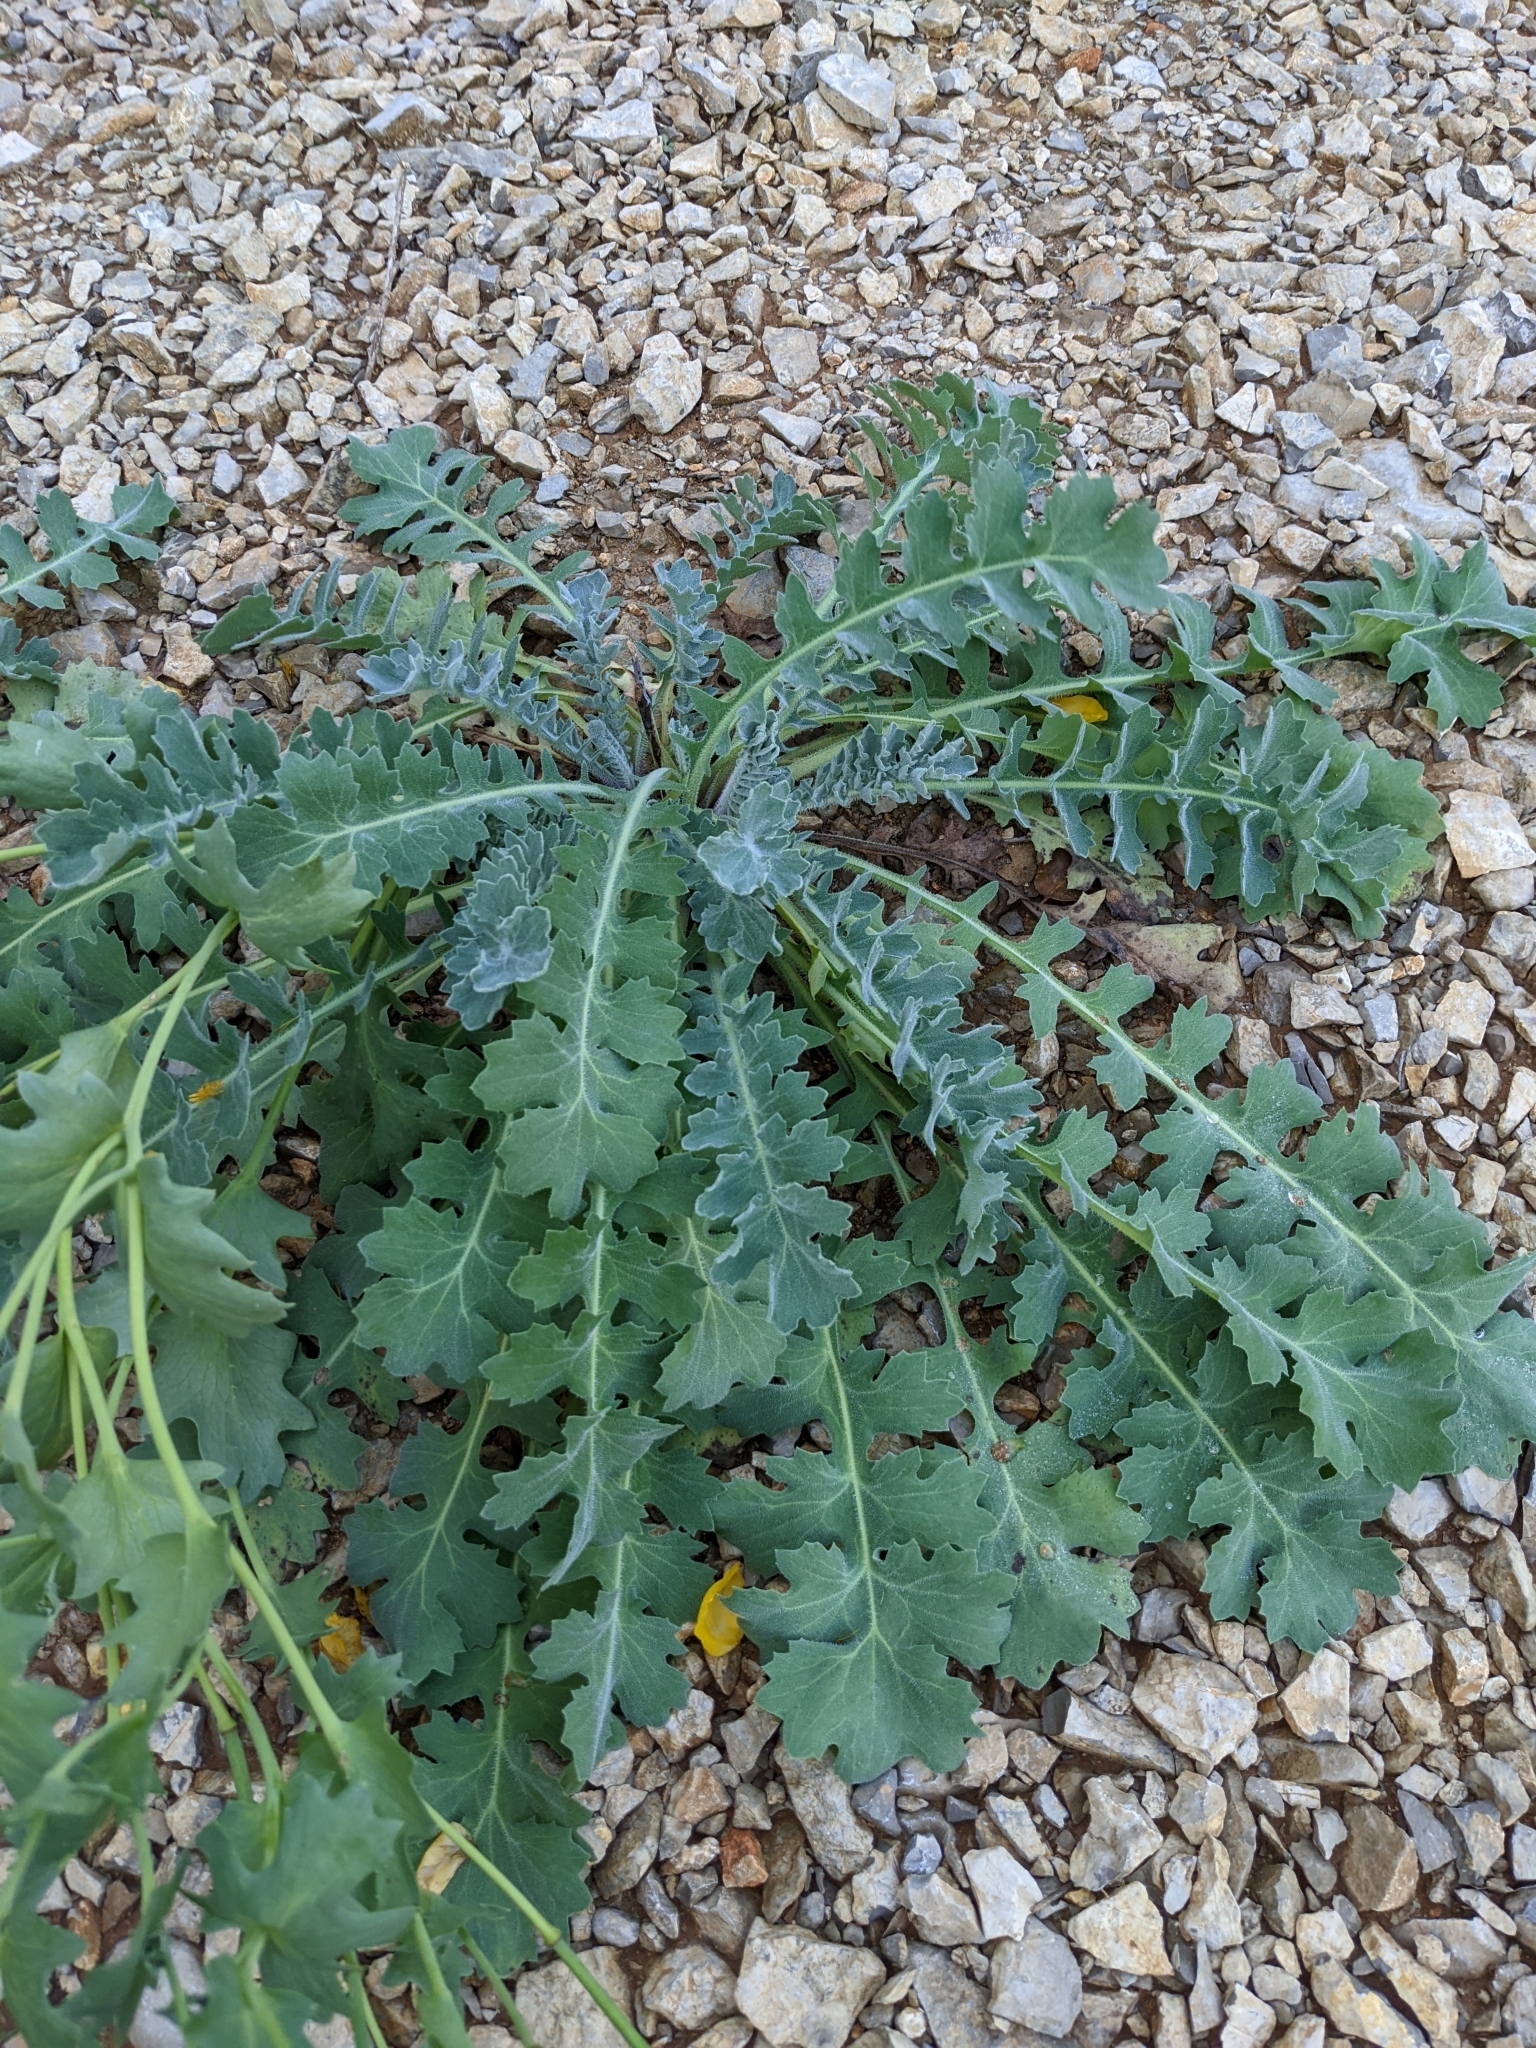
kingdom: Plantae
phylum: Tracheophyta
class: Magnoliopsida
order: Ranunculales
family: Papaveraceae
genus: Glaucium
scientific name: Glaucium flavum
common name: Yellow horned-poppy
